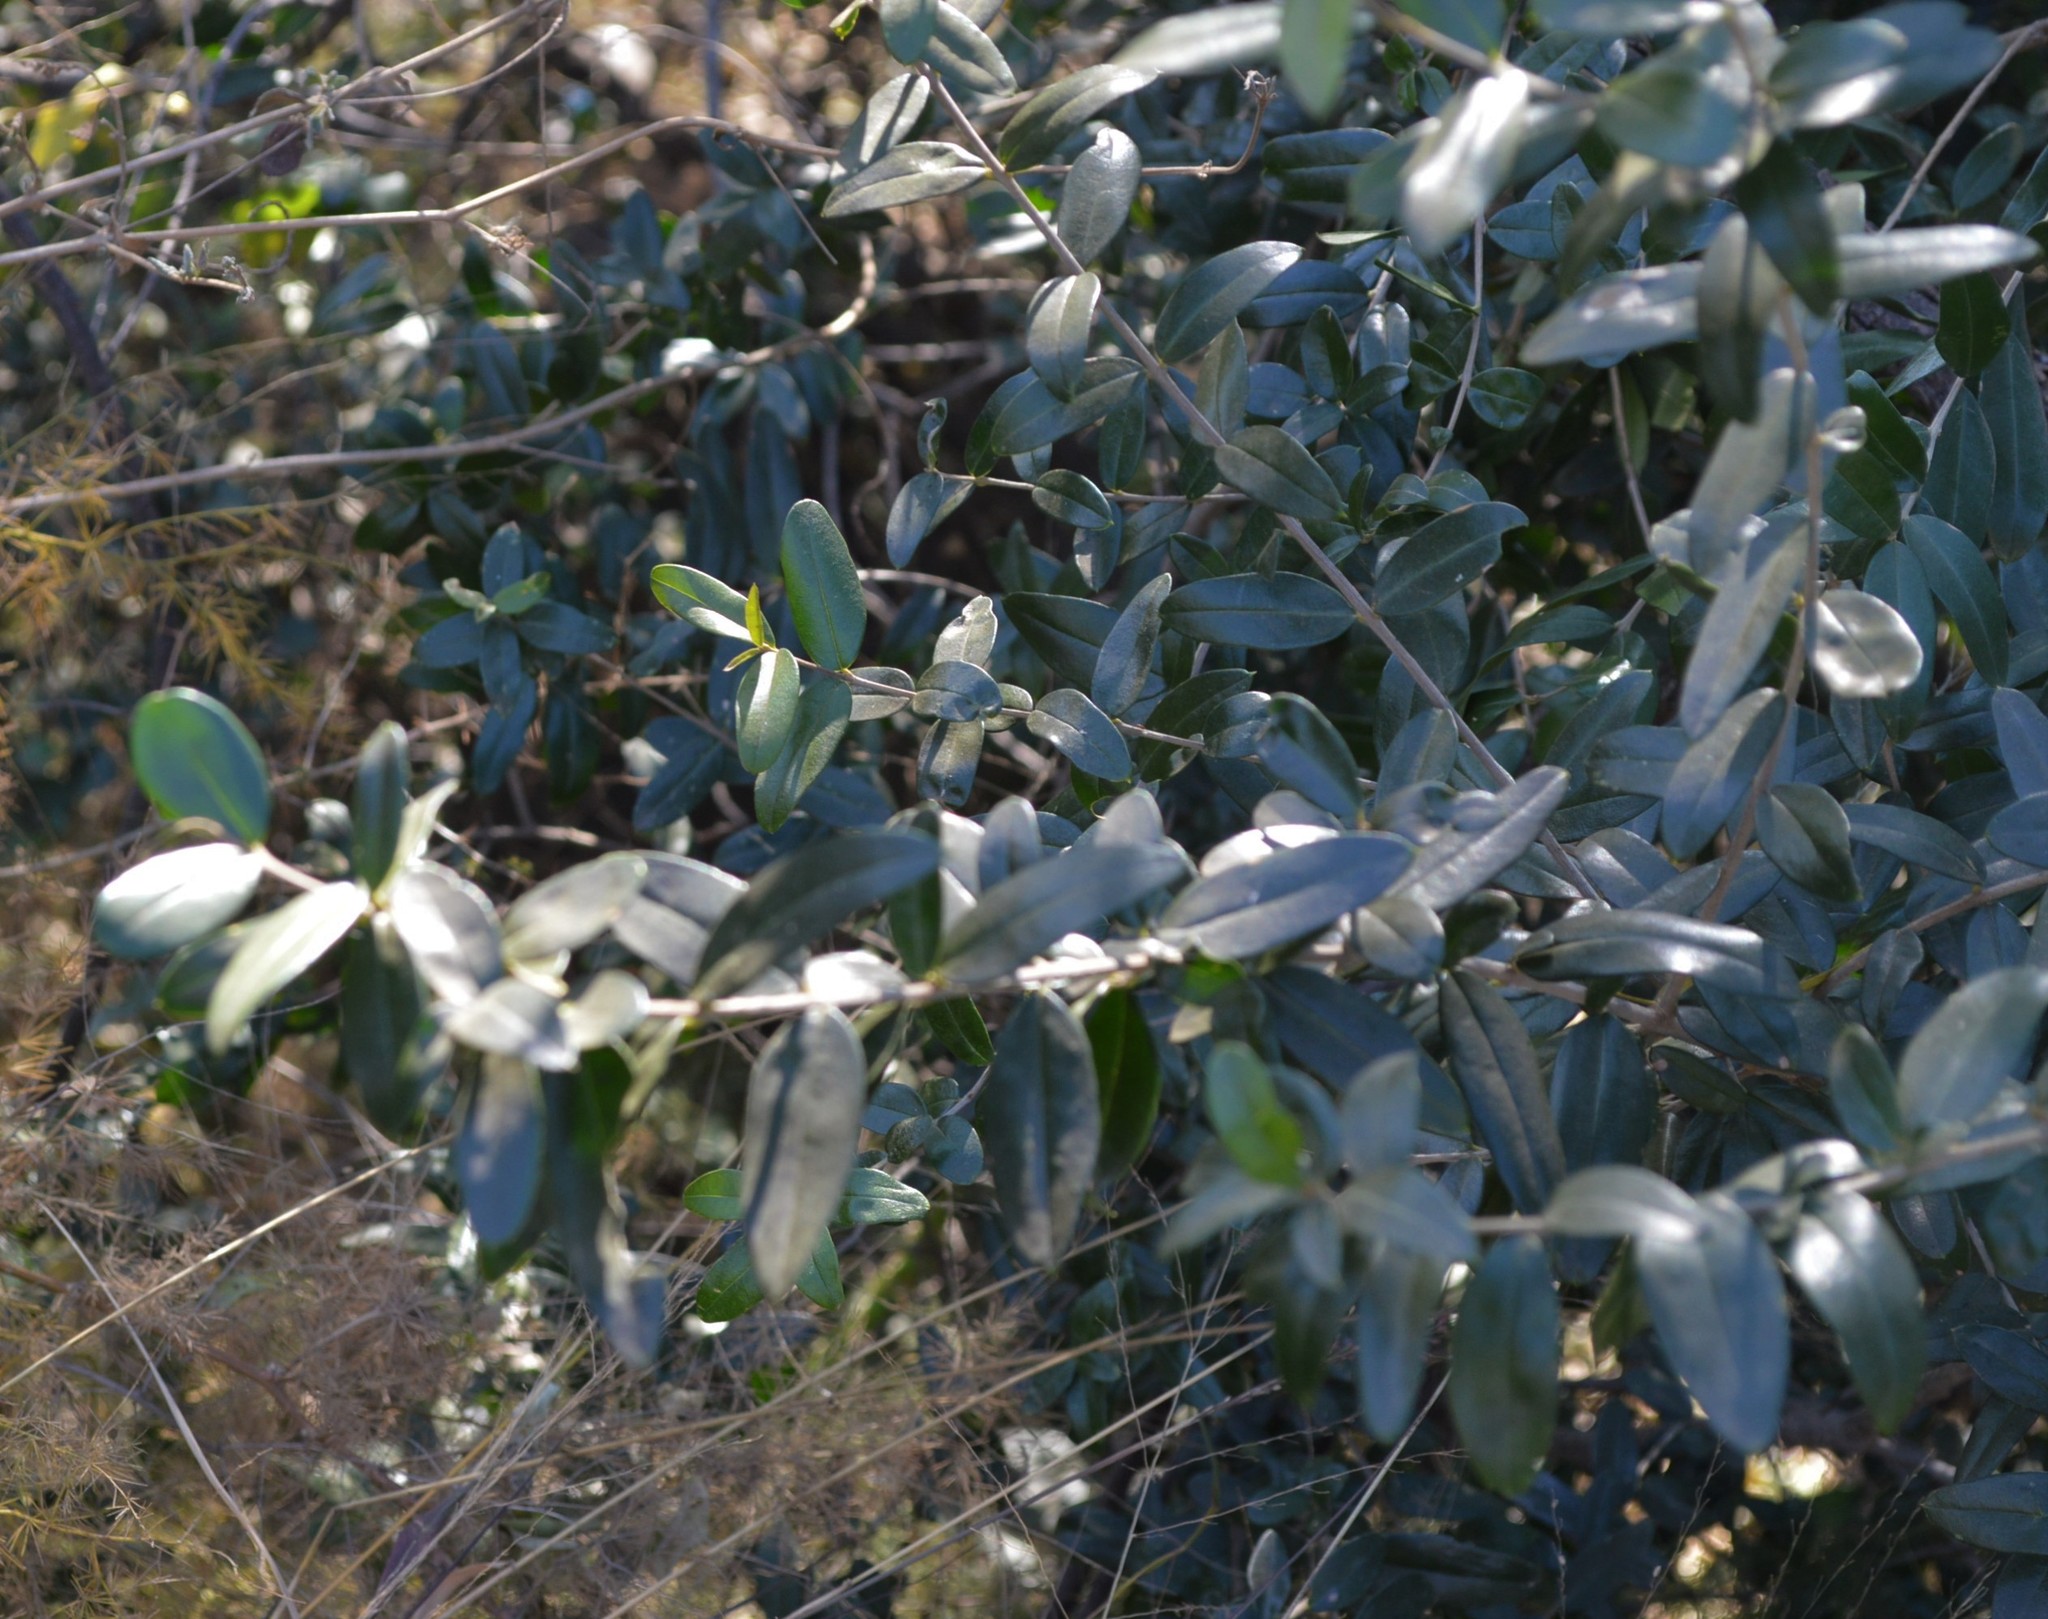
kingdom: Plantae
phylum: Tracheophyta
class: Magnoliopsida
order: Lamiales
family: Oleaceae
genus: Olea
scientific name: Olea europaea
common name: Olive
